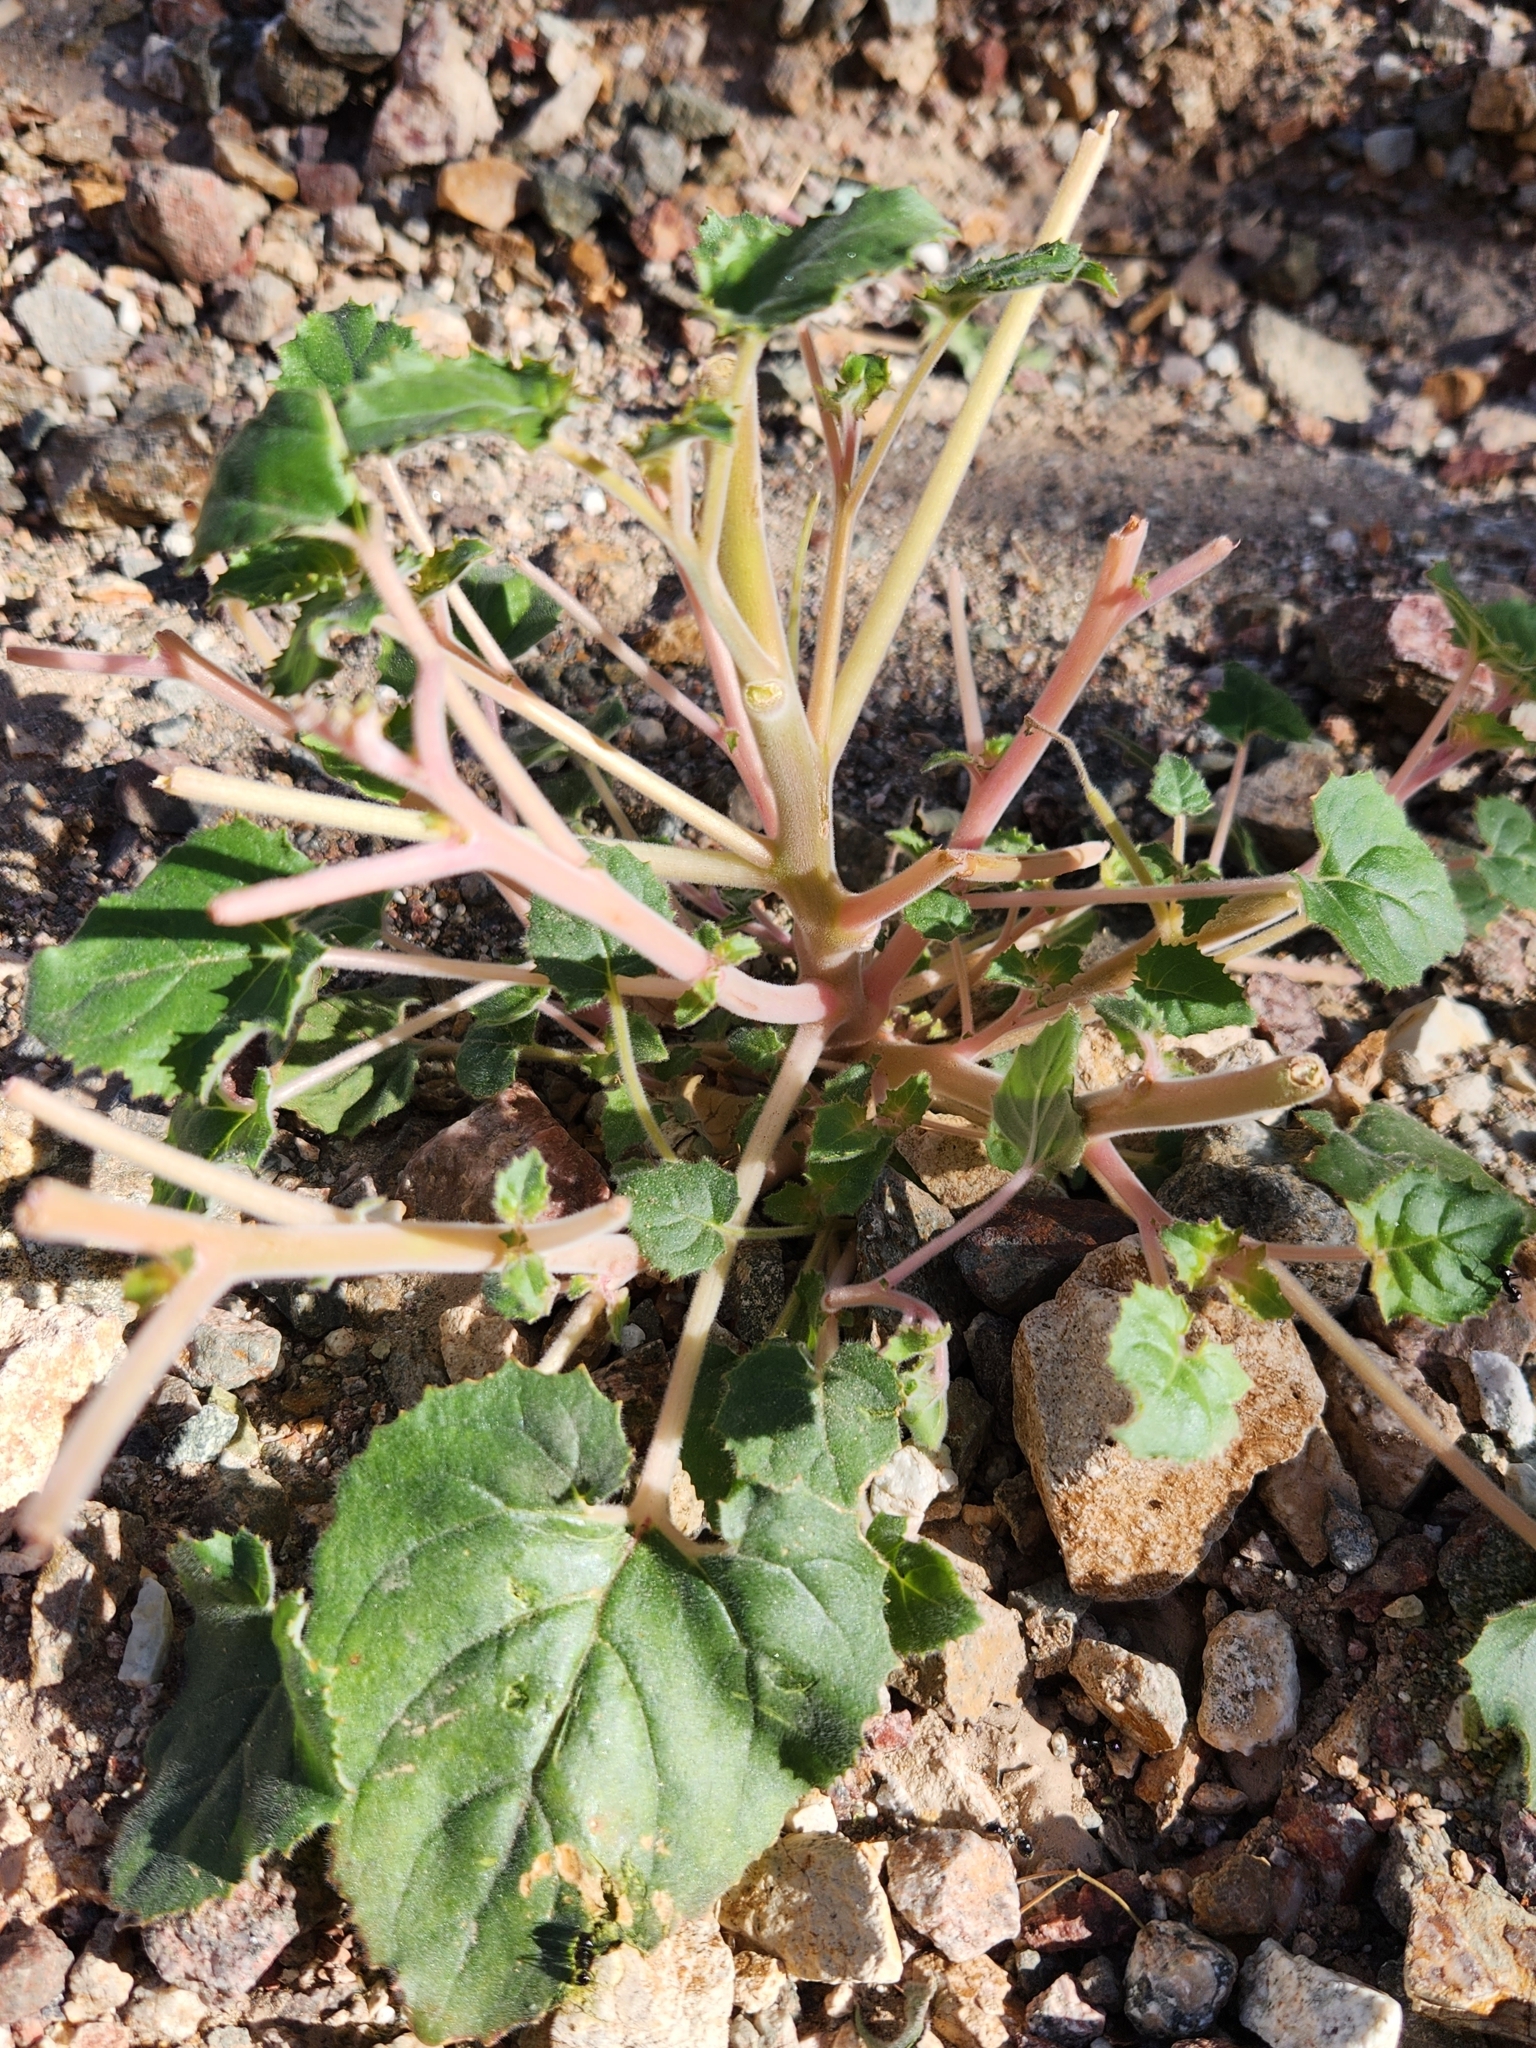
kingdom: Plantae
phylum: Tracheophyta
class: Magnoliopsida
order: Myrtales
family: Onagraceae
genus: Chylismia
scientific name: Chylismia cardiophylla
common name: Heartleaf suncup
